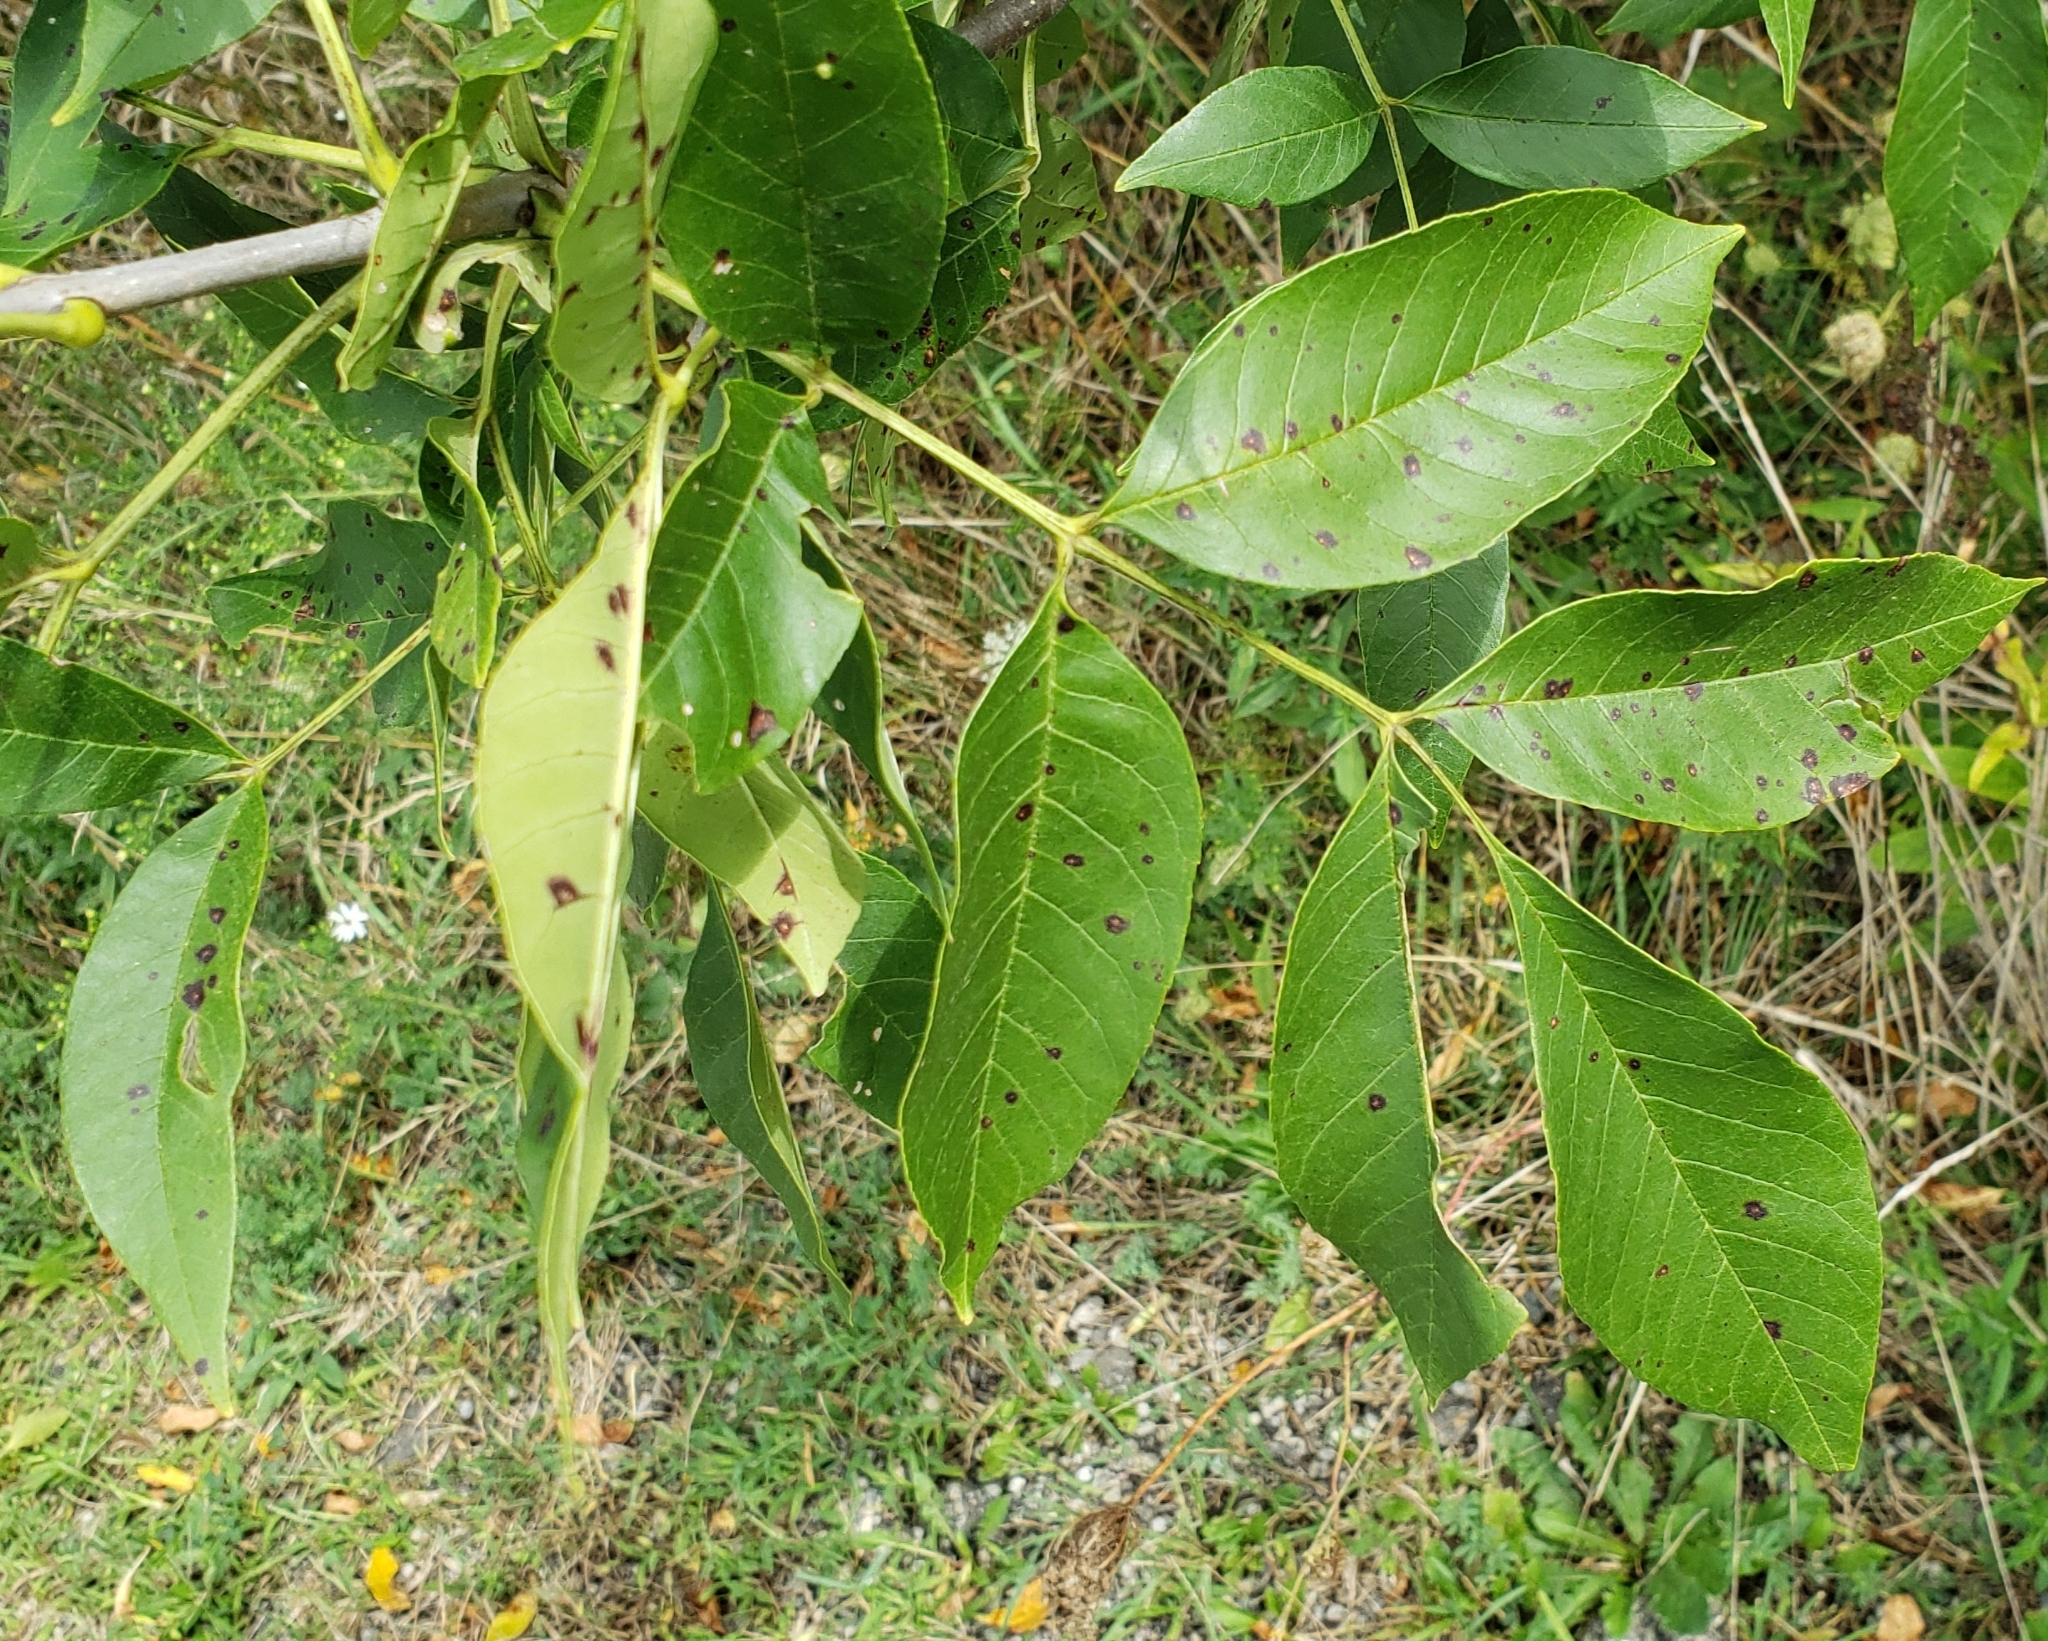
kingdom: Plantae
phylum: Tracheophyta
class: Magnoliopsida
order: Lamiales
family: Oleaceae
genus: Fraxinus
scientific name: Fraxinus pennsylvanica
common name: Green ash
